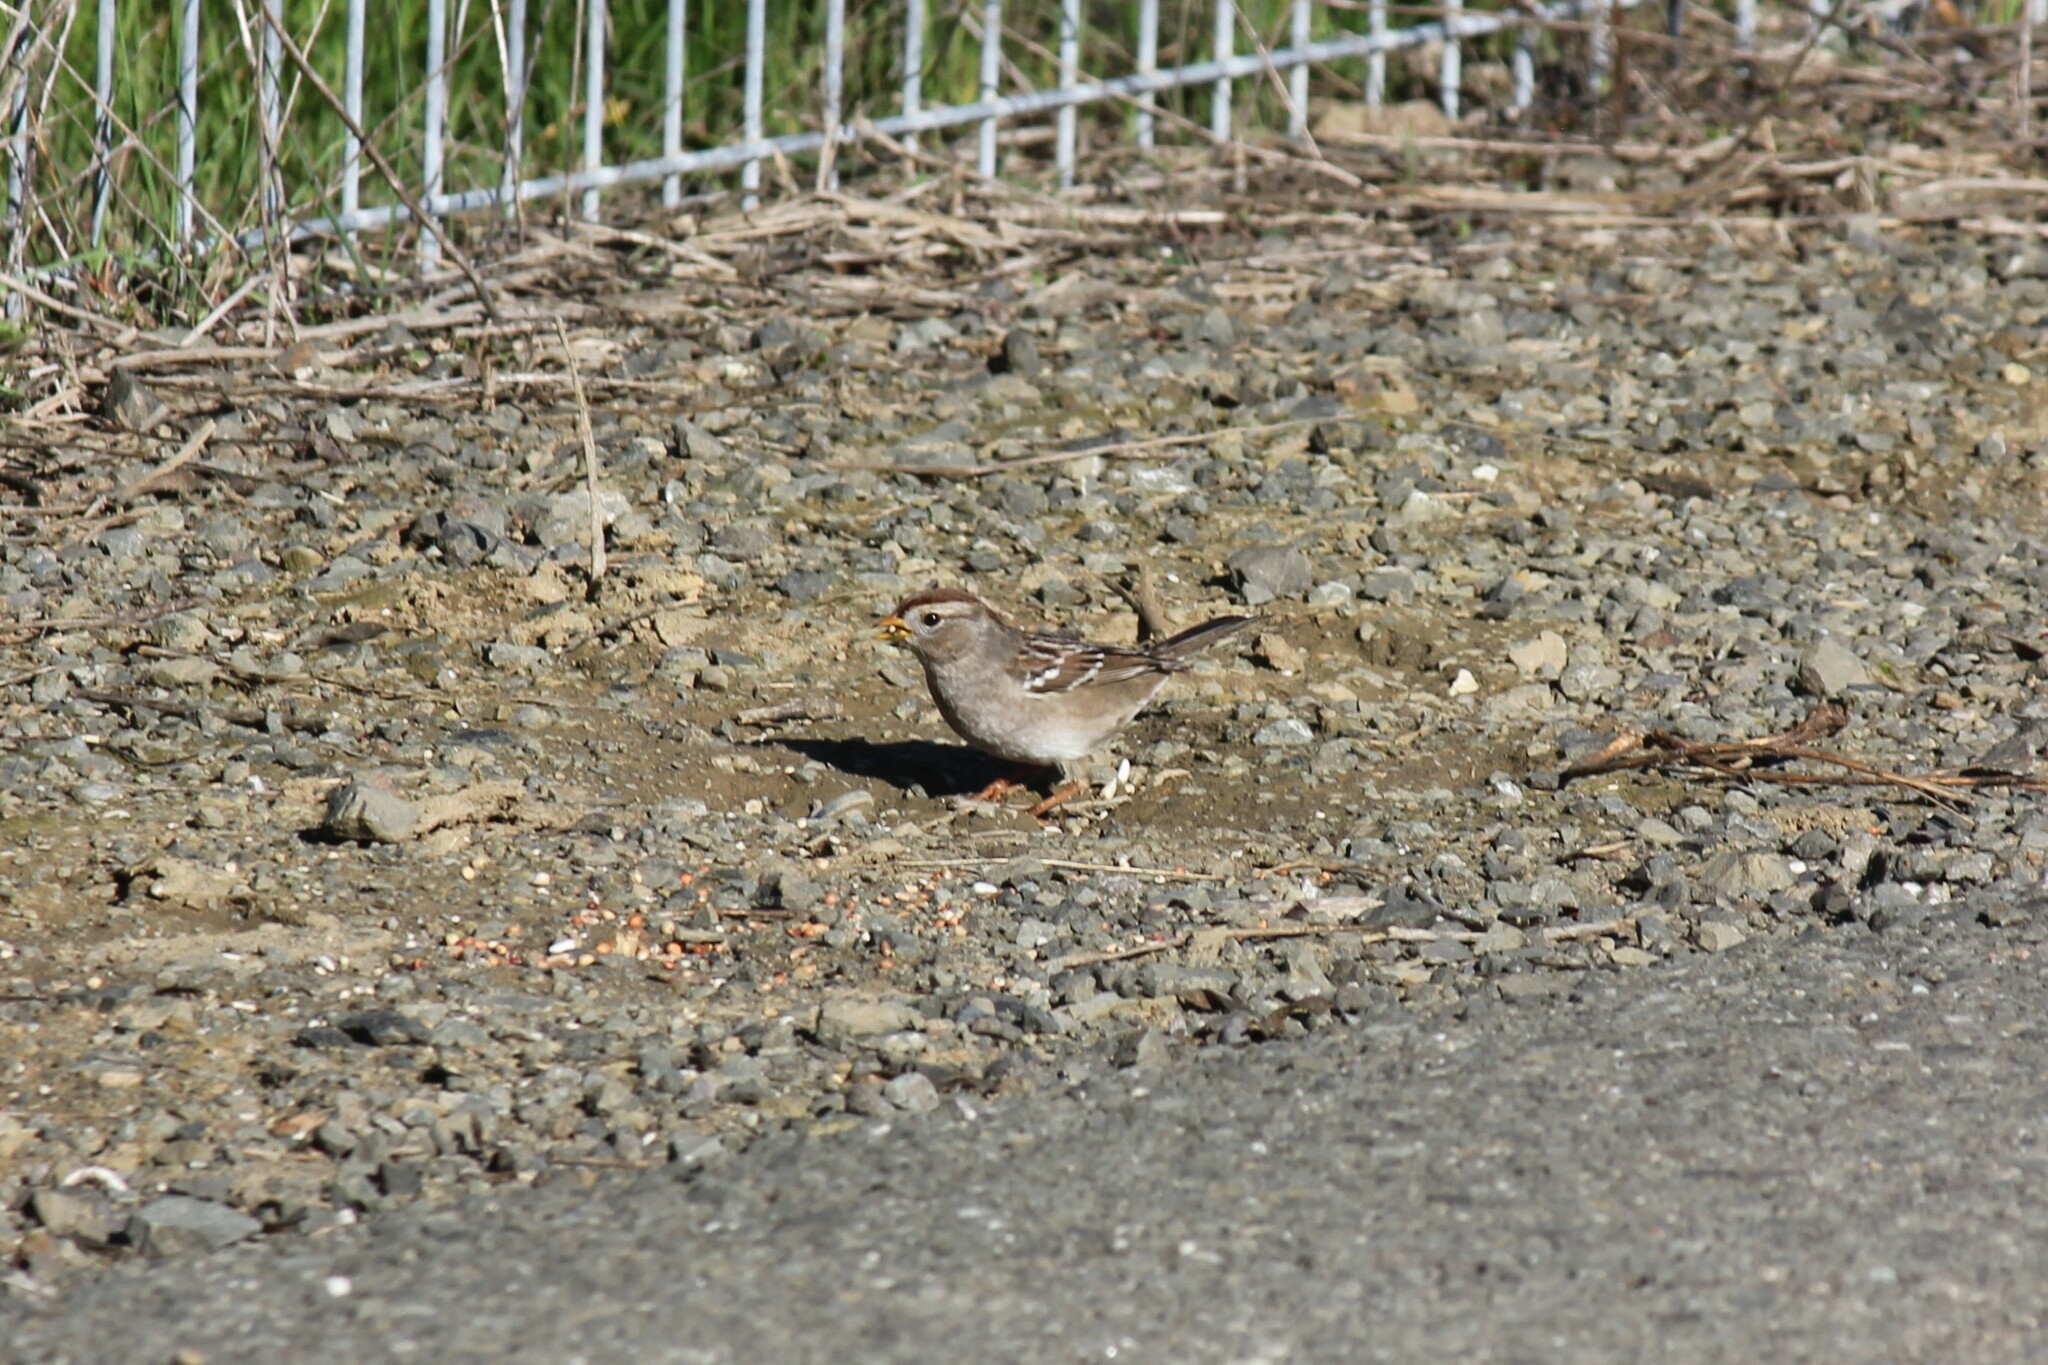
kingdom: Animalia
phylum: Chordata
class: Aves
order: Passeriformes
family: Passerellidae
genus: Zonotrichia
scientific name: Zonotrichia leucophrys
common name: White-crowned sparrow
